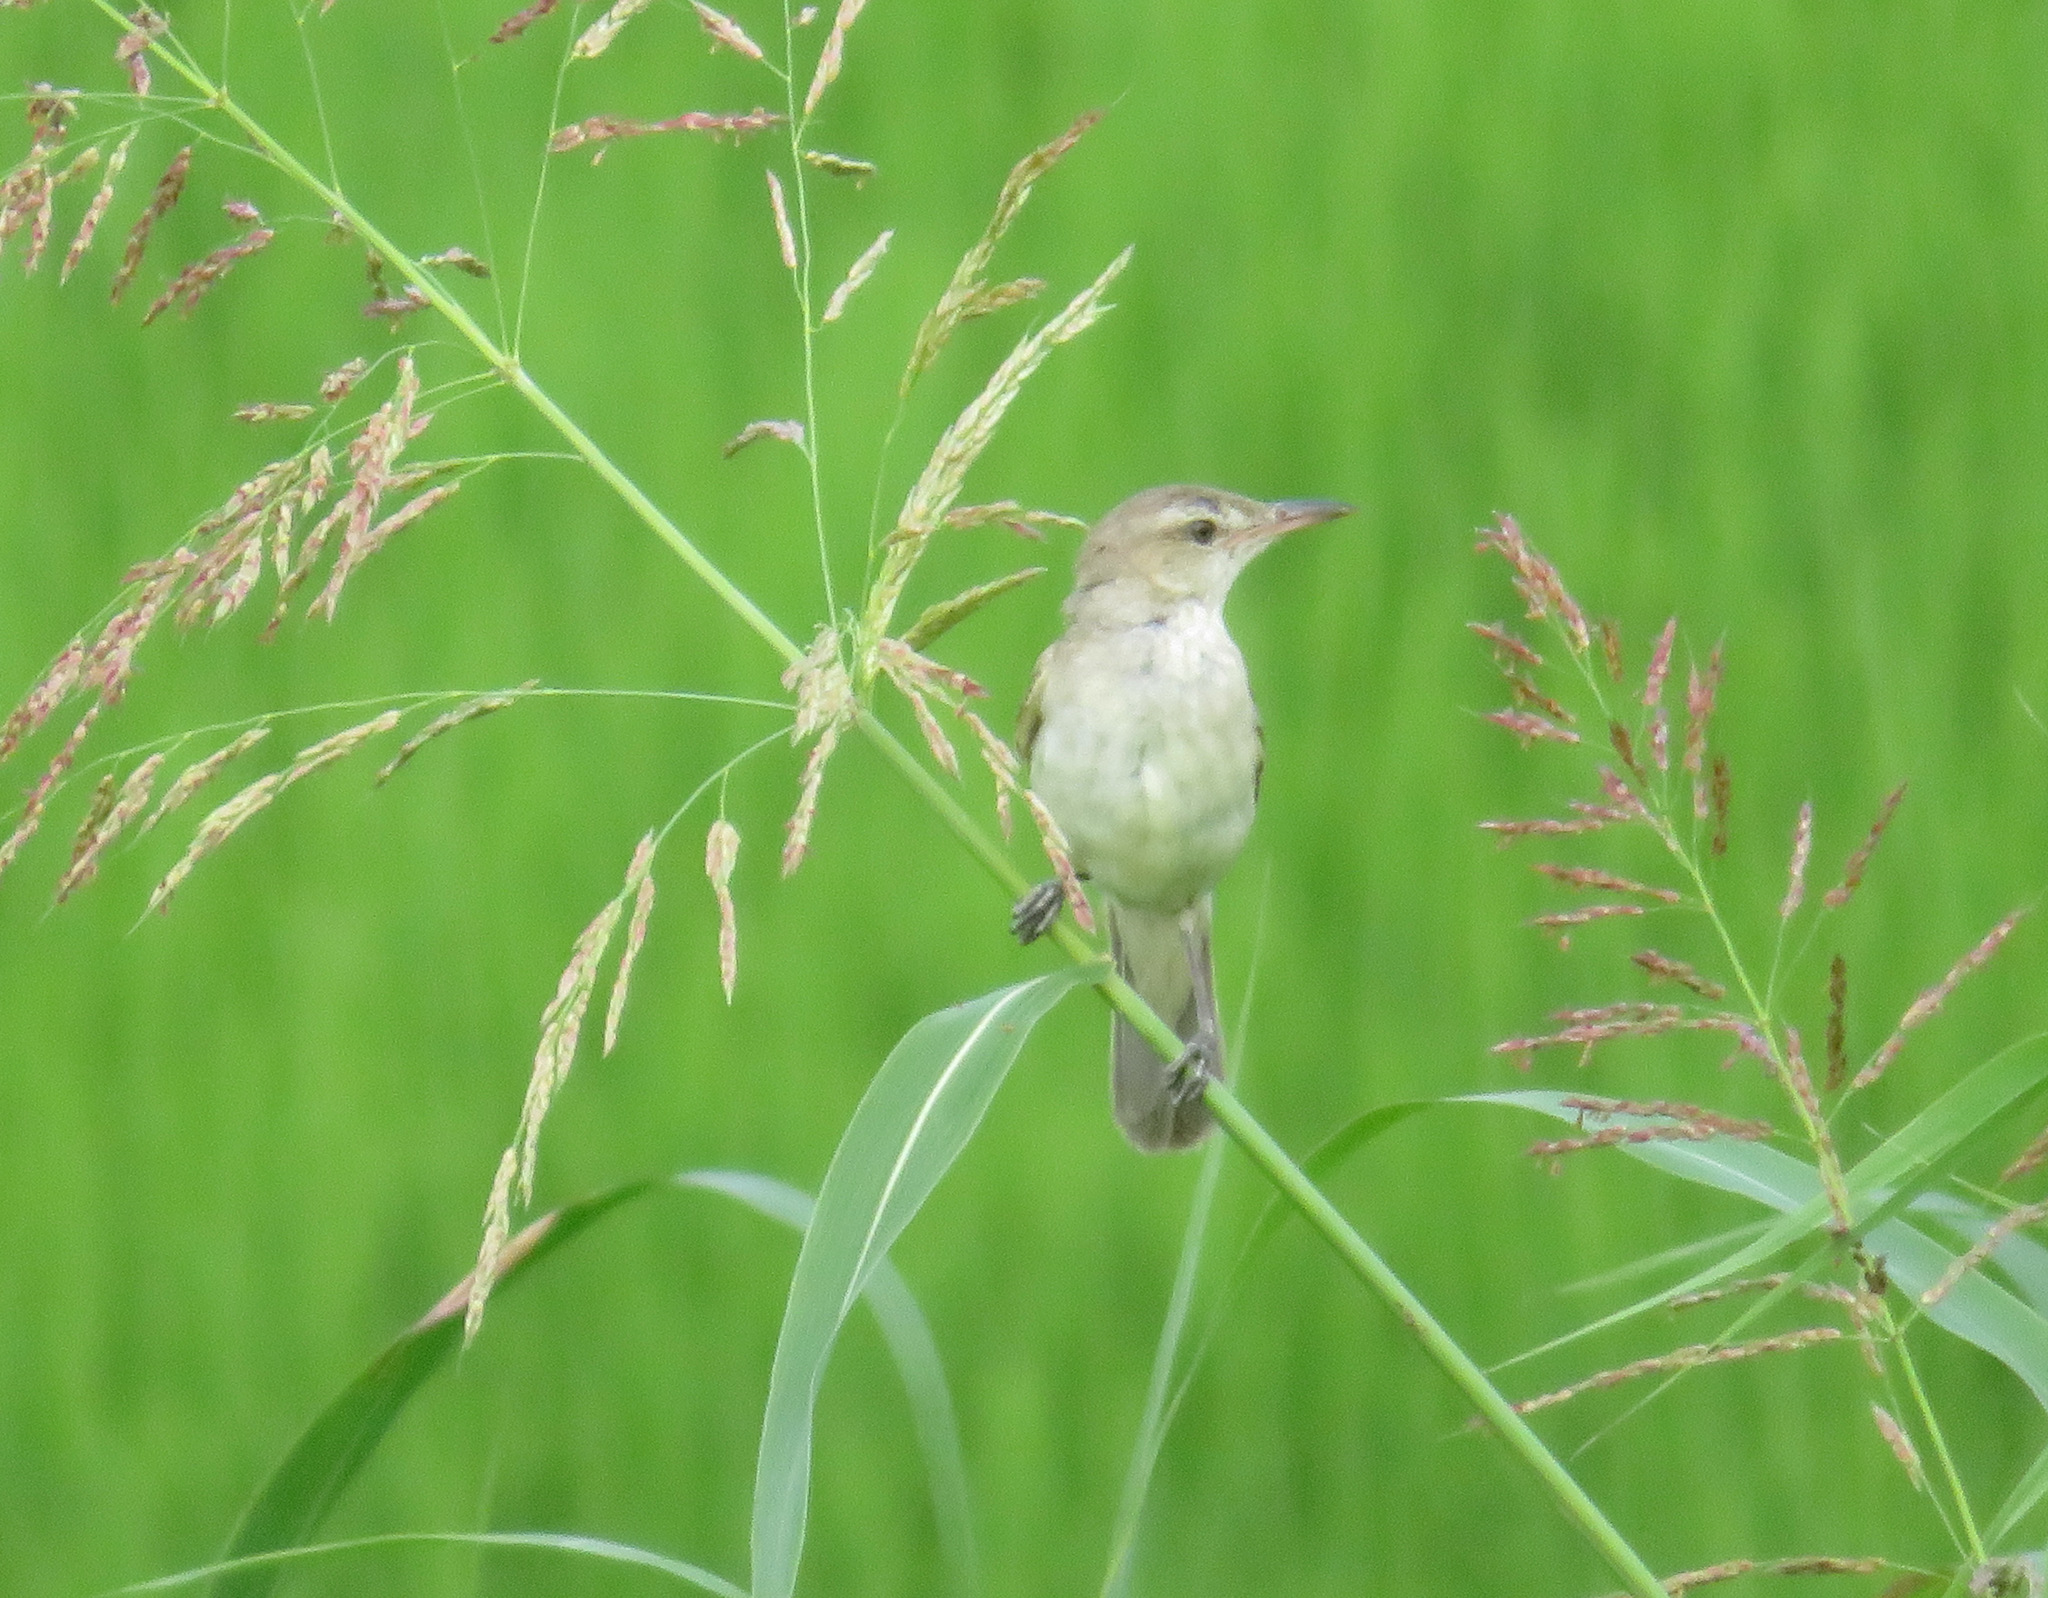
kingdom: Animalia
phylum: Chordata
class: Aves
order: Passeriformes
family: Acrocephalidae
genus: Acrocephalus
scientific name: Acrocephalus orientalis
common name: Oriental reed warbler
